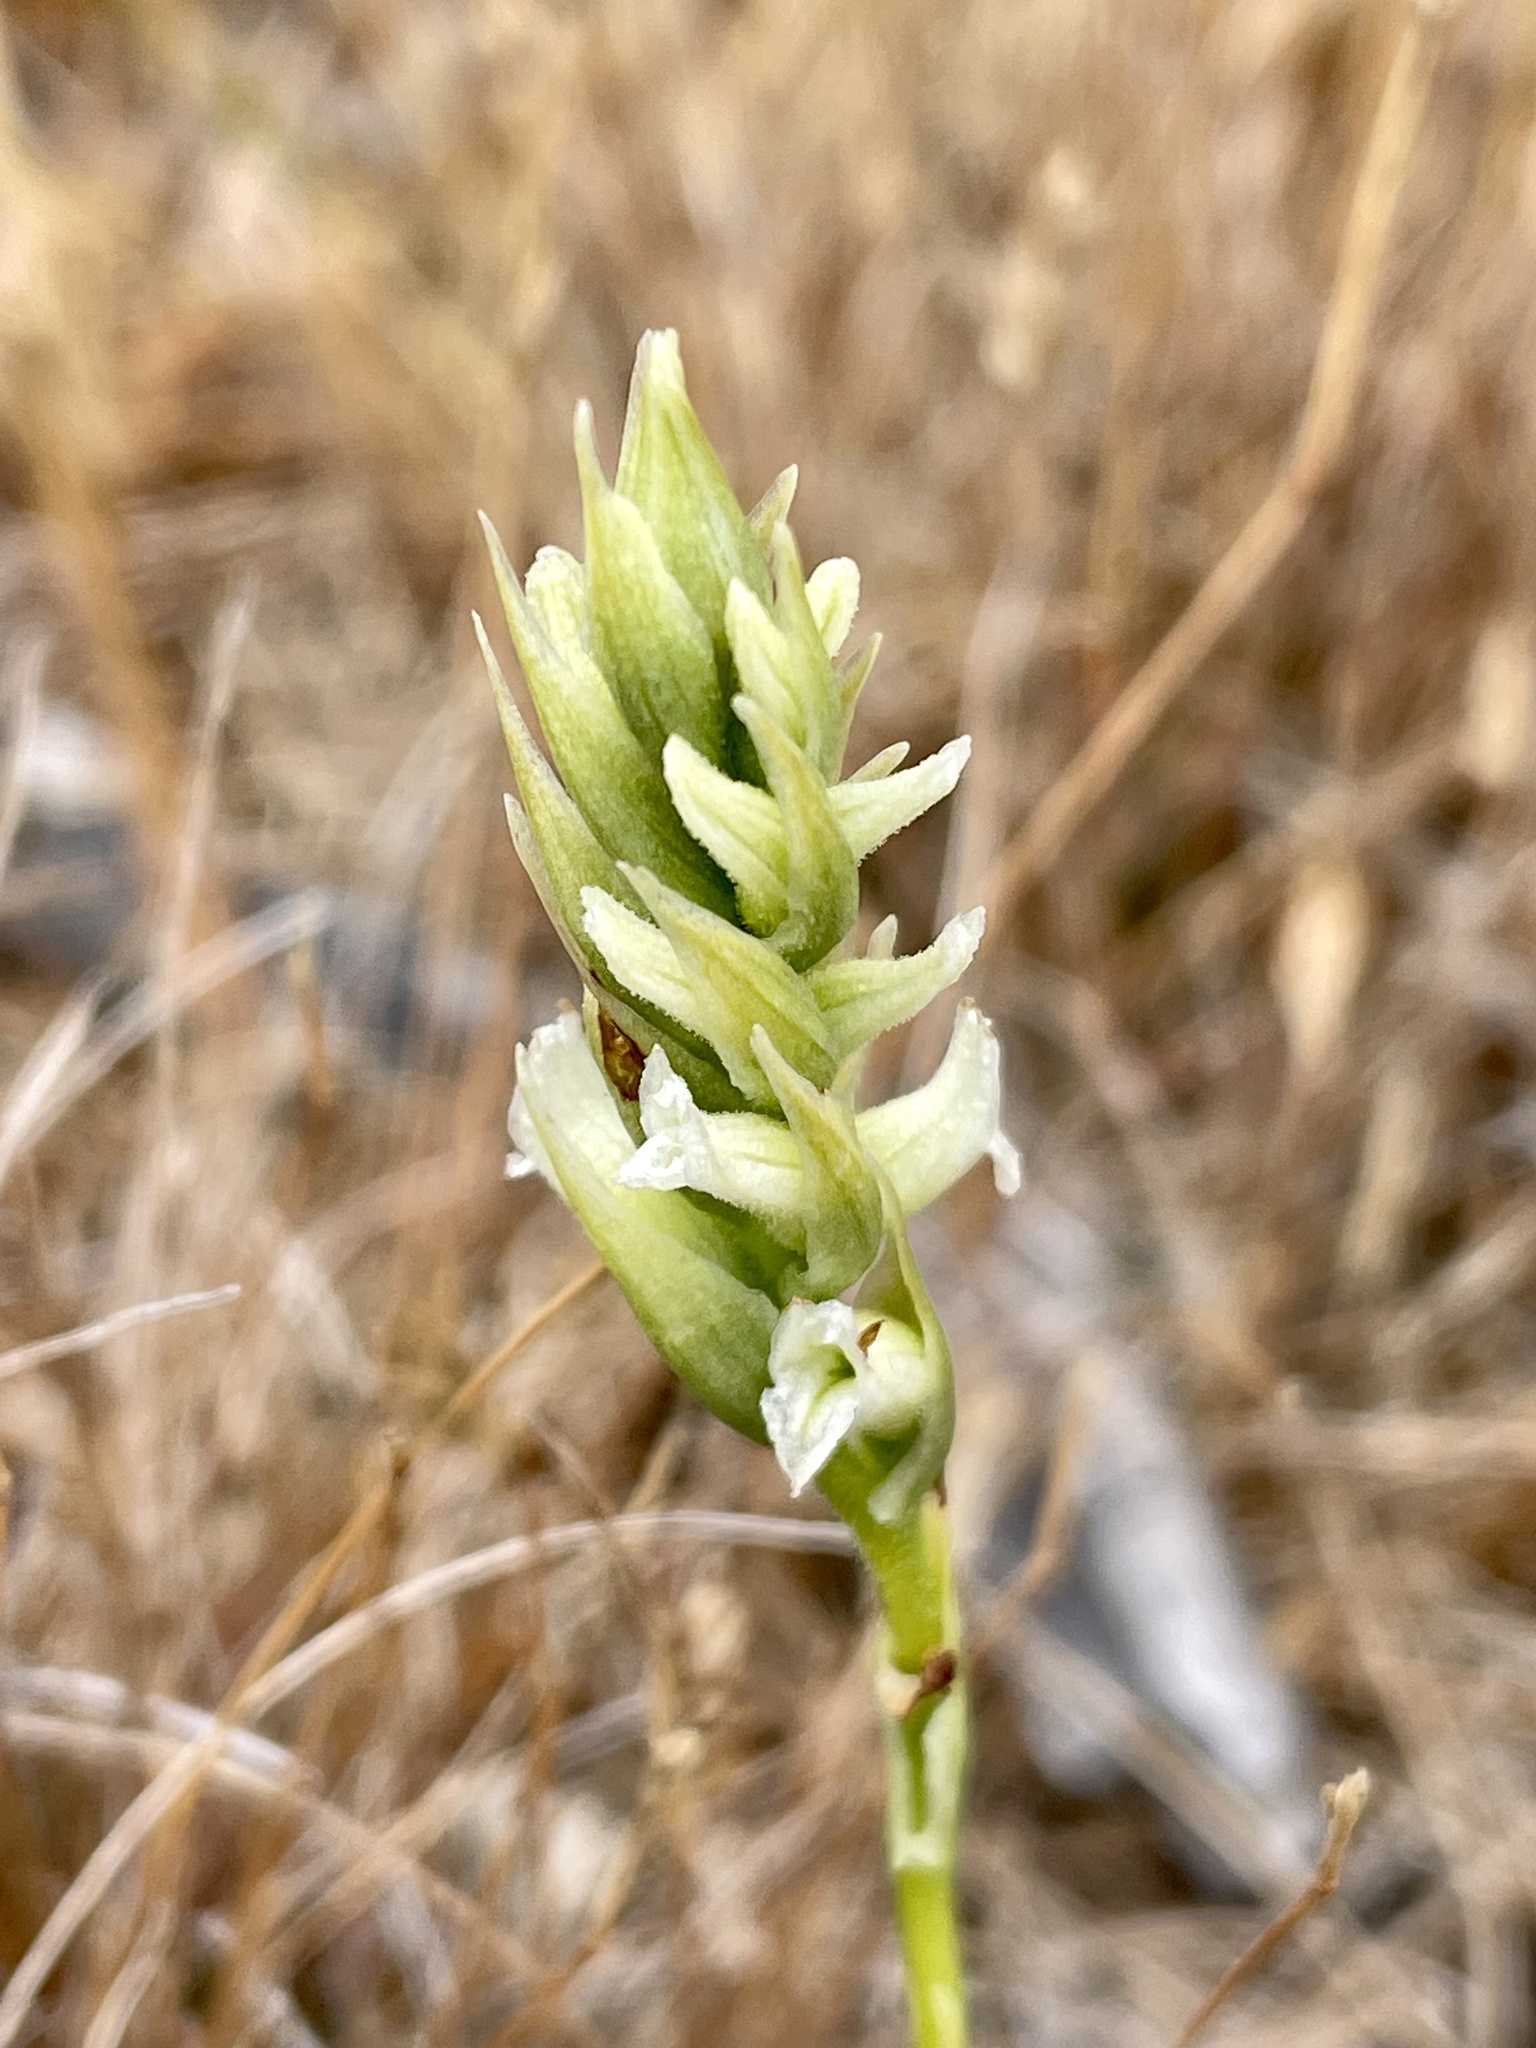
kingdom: Plantae
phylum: Tracheophyta
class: Liliopsida
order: Asparagales
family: Orchidaceae
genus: Spiranthes
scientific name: Spiranthes romanzoffiana
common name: Irish lady's-tresses
